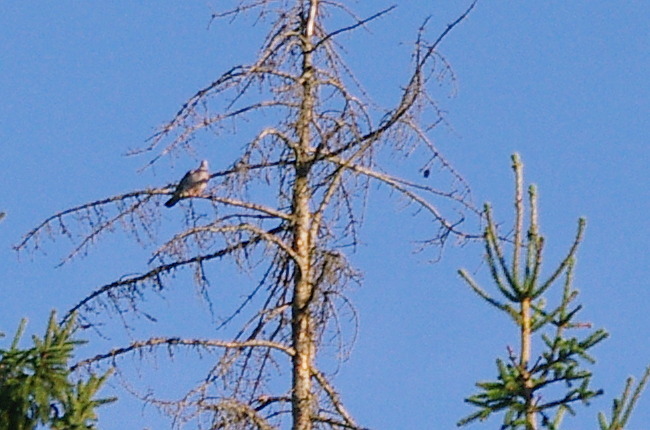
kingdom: Animalia
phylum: Chordata
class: Aves
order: Columbiformes
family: Columbidae
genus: Columba
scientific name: Columba palumbus
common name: Common wood pigeon
